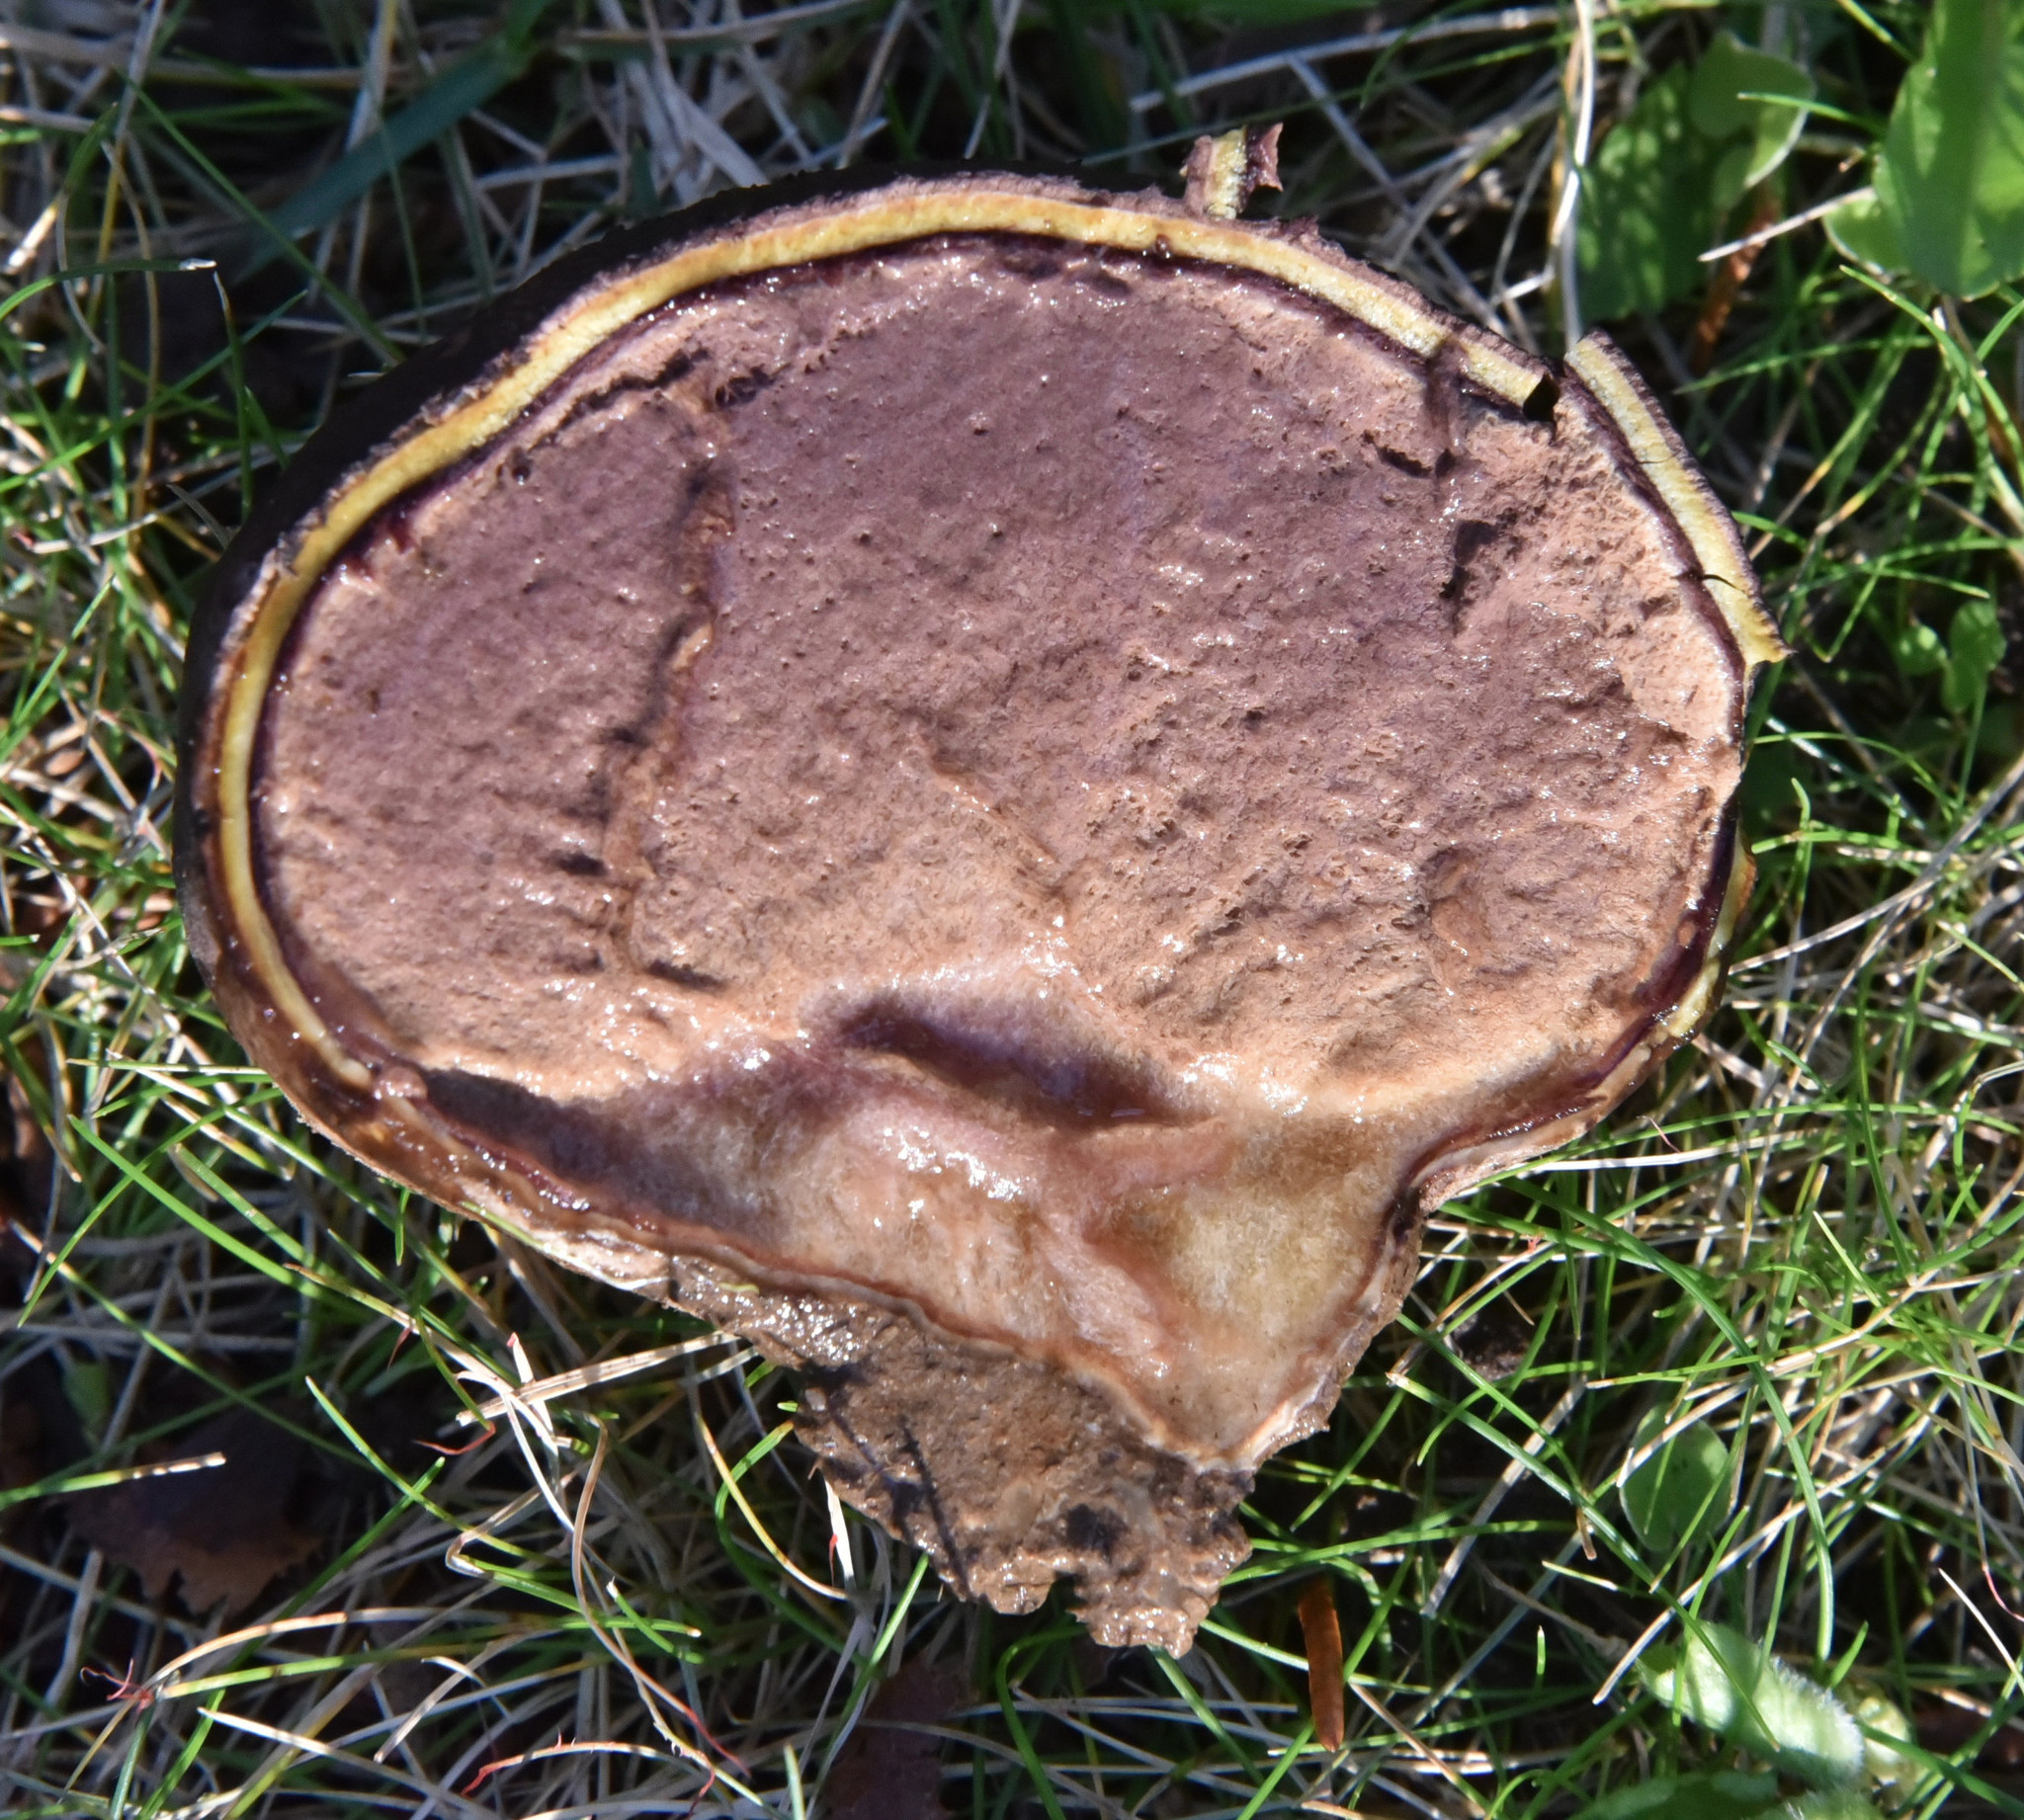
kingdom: Fungi
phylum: Basidiomycota
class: Agaricomycetes
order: Agaricales
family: Lycoperdaceae
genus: Calvatia
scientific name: Calvatia fragilis
